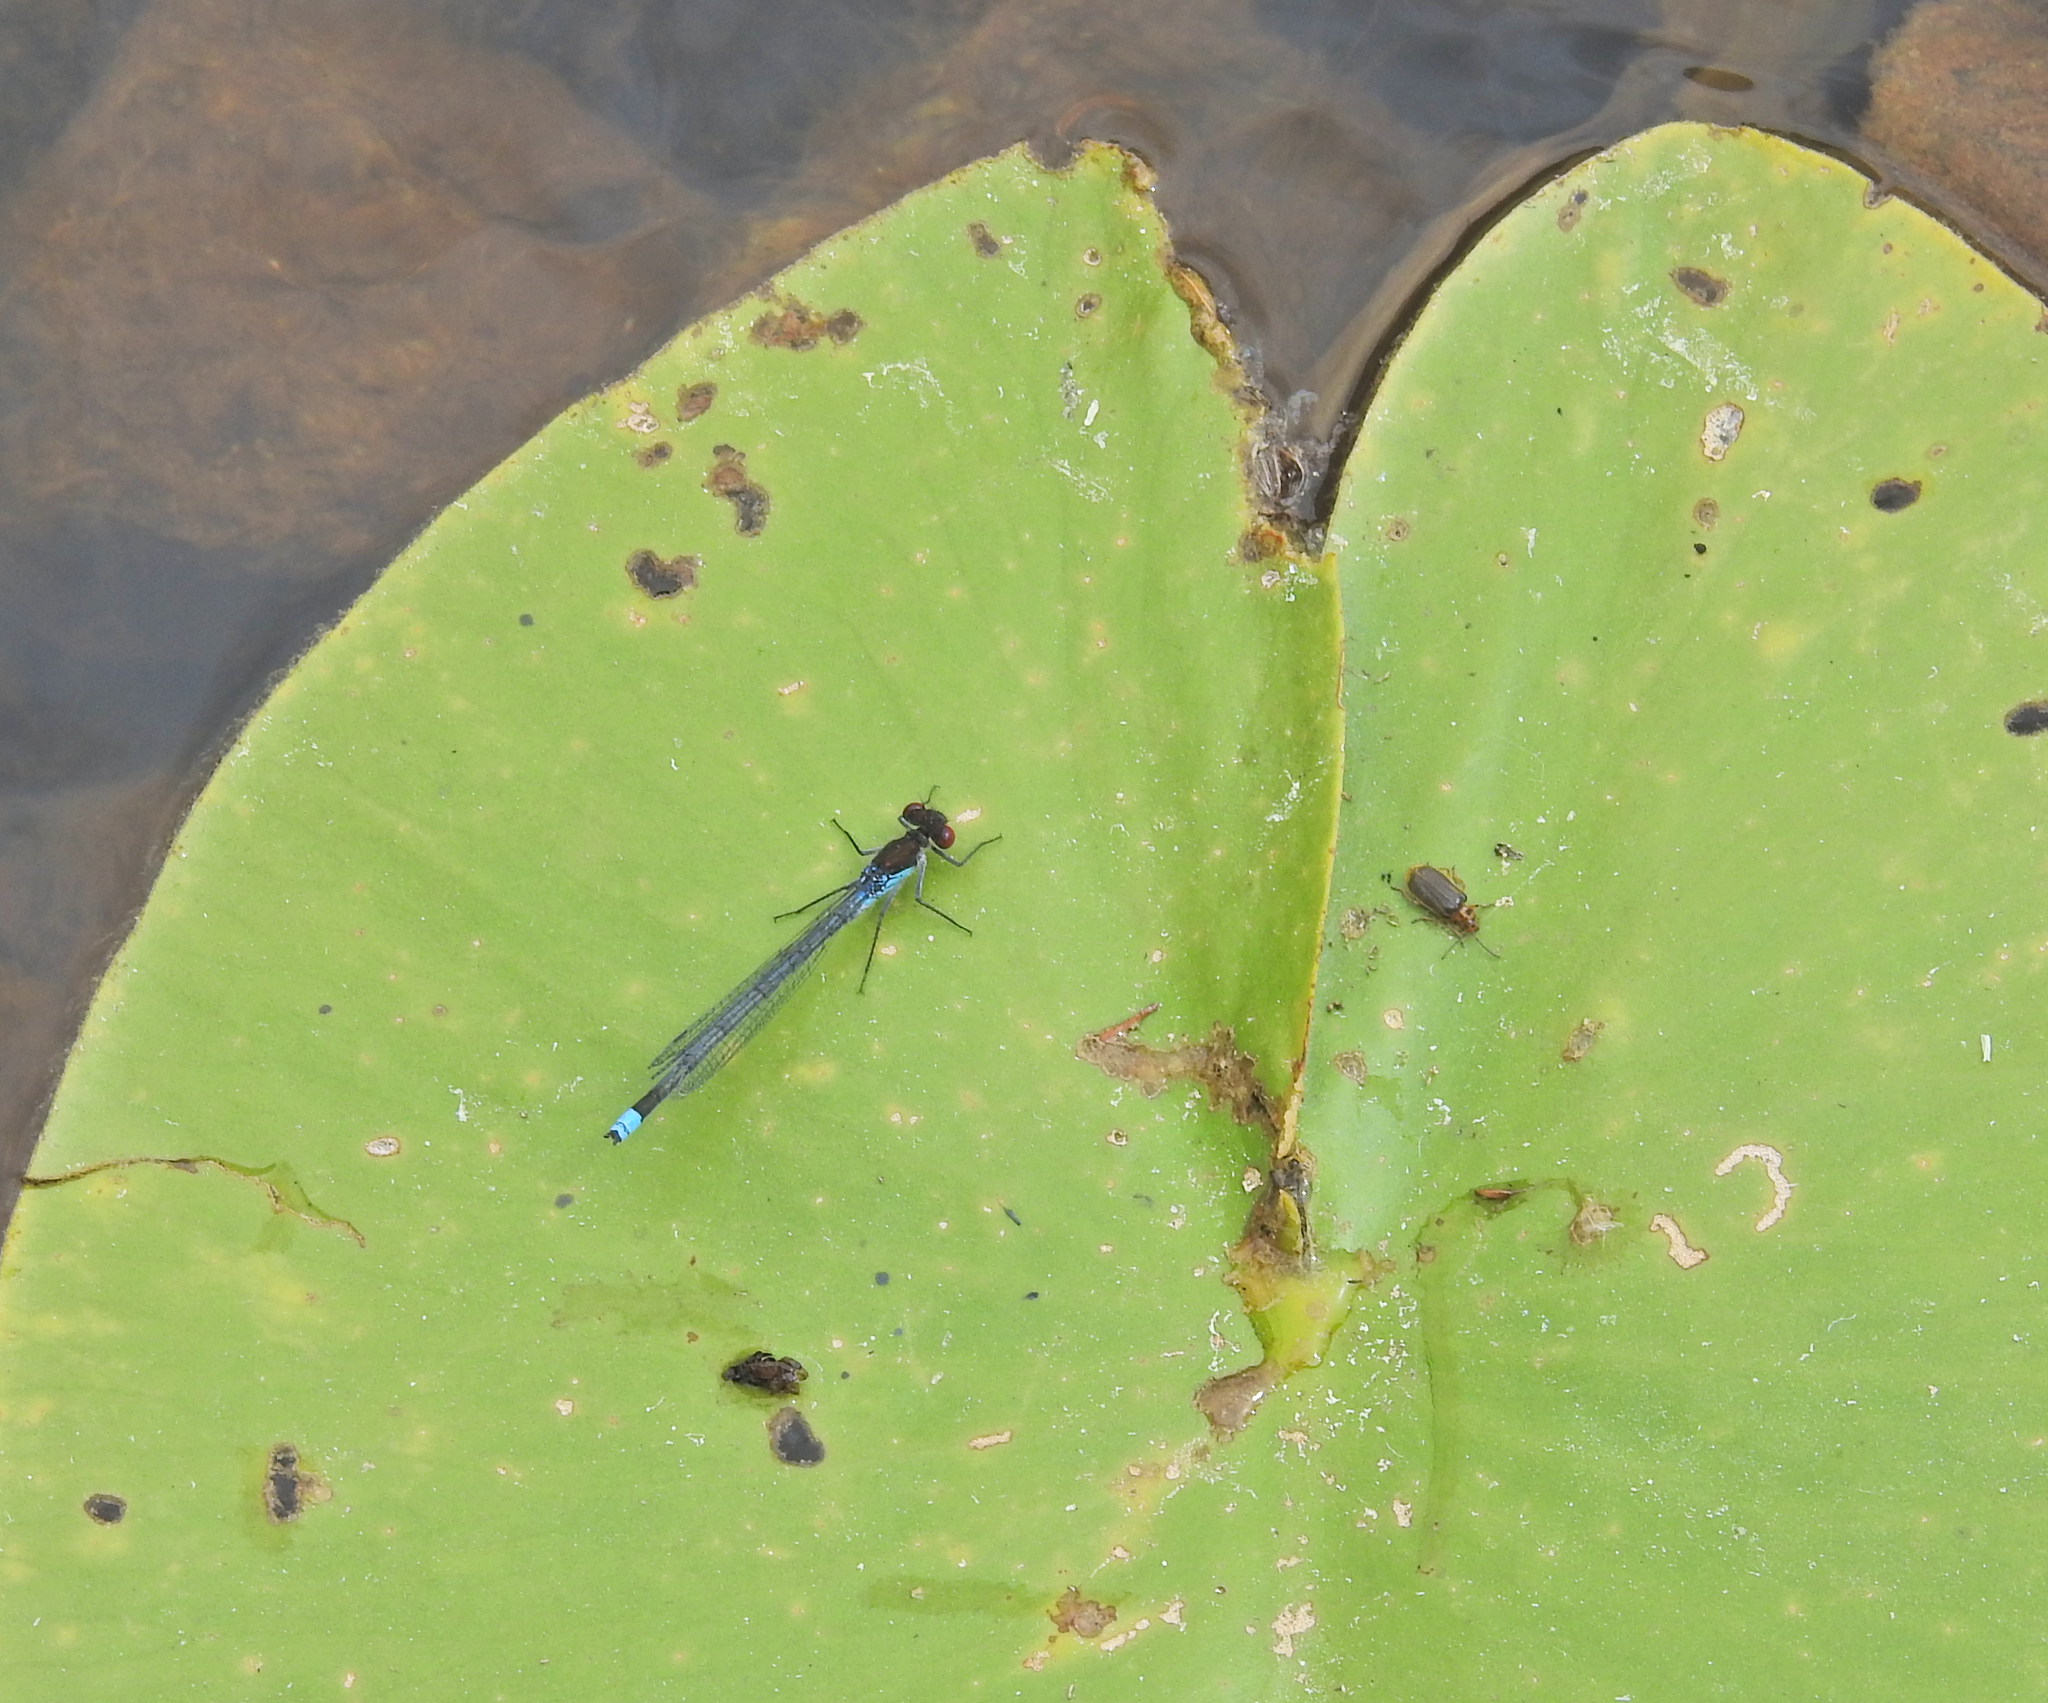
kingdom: Animalia
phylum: Arthropoda
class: Insecta
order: Odonata
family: Coenagrionidae
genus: Erythromma
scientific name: Erythromma najas
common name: Red-eyed damselfly
